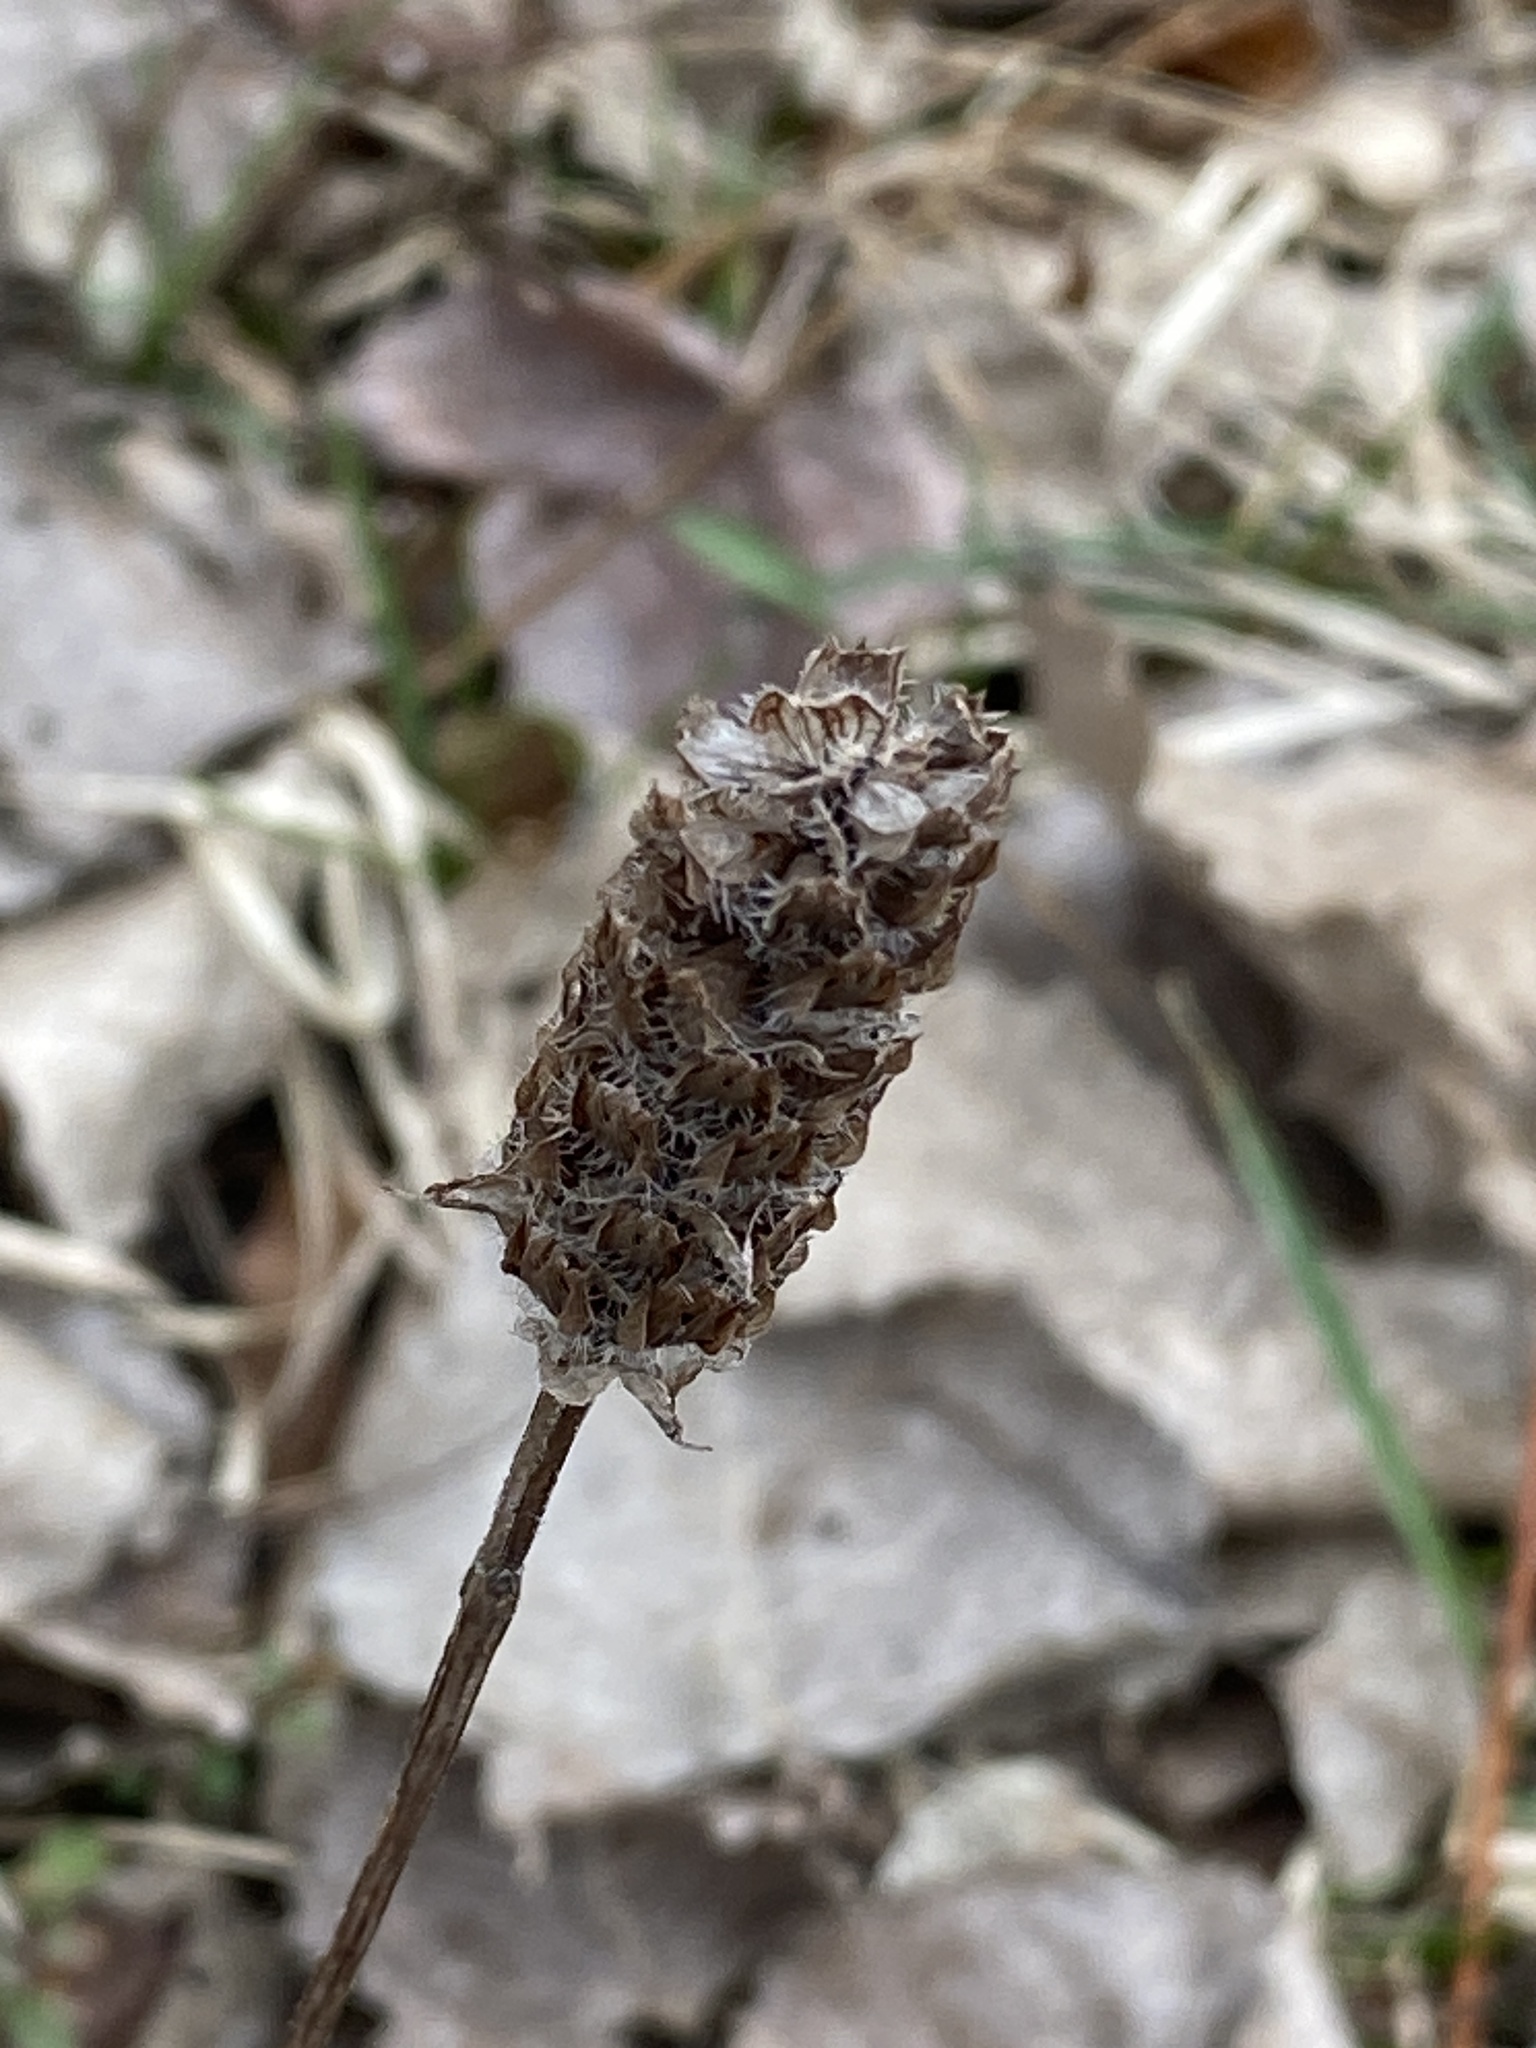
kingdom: Plantae
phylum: Tracheophyta
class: Magnoliopsida
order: Lamiales
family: Lamiaceae
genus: Prunella
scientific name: Prunella vulgaris
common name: Heal-all
